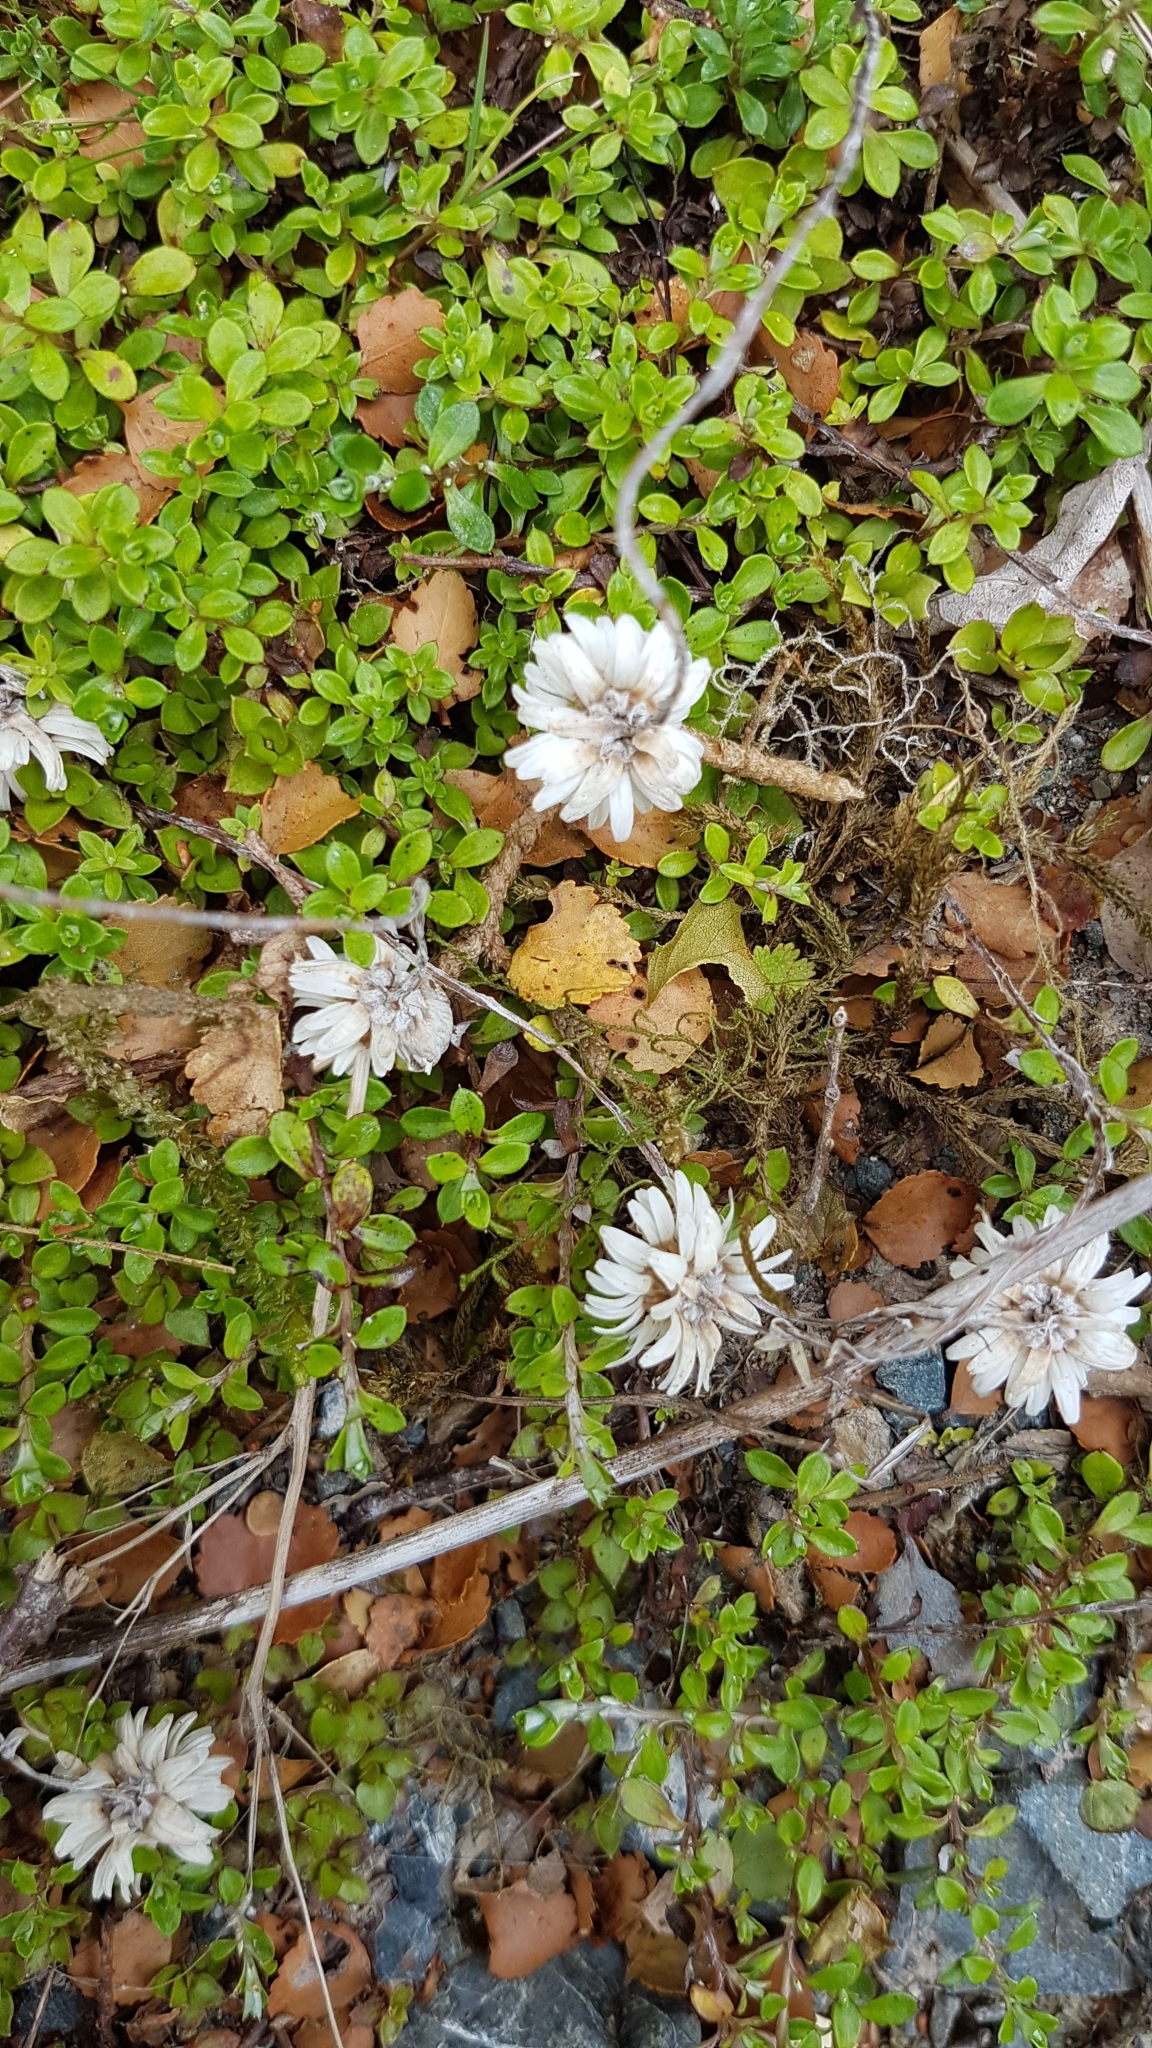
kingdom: Plantae
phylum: Tracheophyta
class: Magnoliopsida
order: Asterales
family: Asteraceae
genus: Anaphalioides
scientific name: Anaphalioides bellidioides
